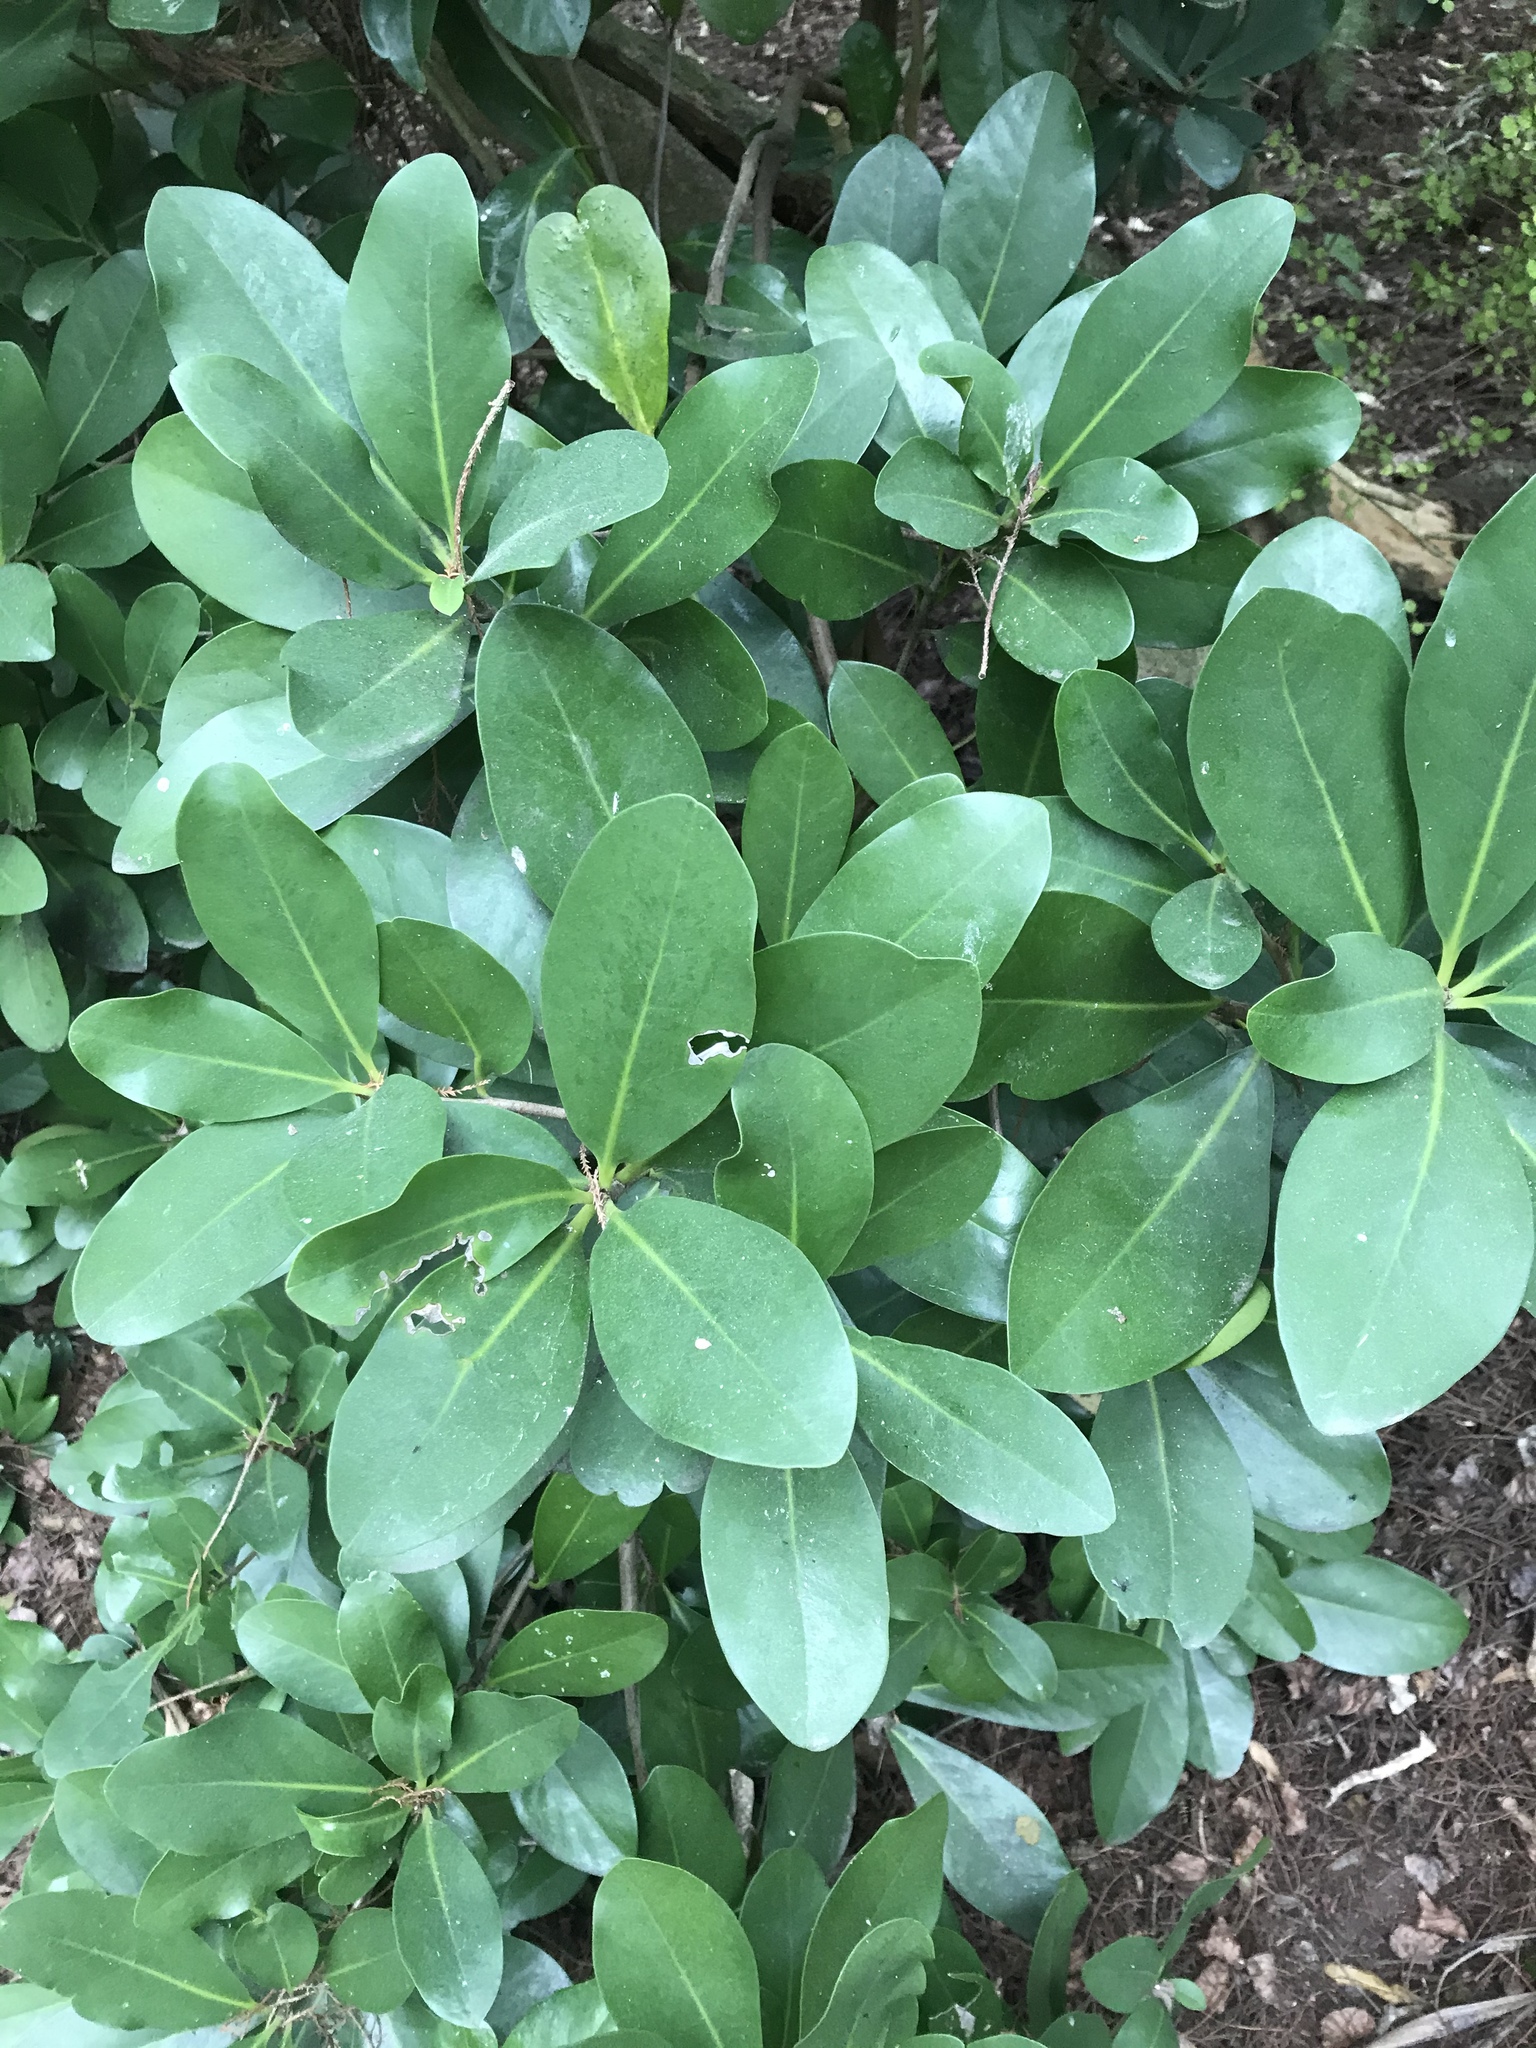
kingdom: Plantae
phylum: Tracheophyta
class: Magnoliopsida
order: Cucurbitales
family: Corynocarpaceae
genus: Corynocarpus
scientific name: Corynocarpus laevigatus
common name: New zealand laurel
